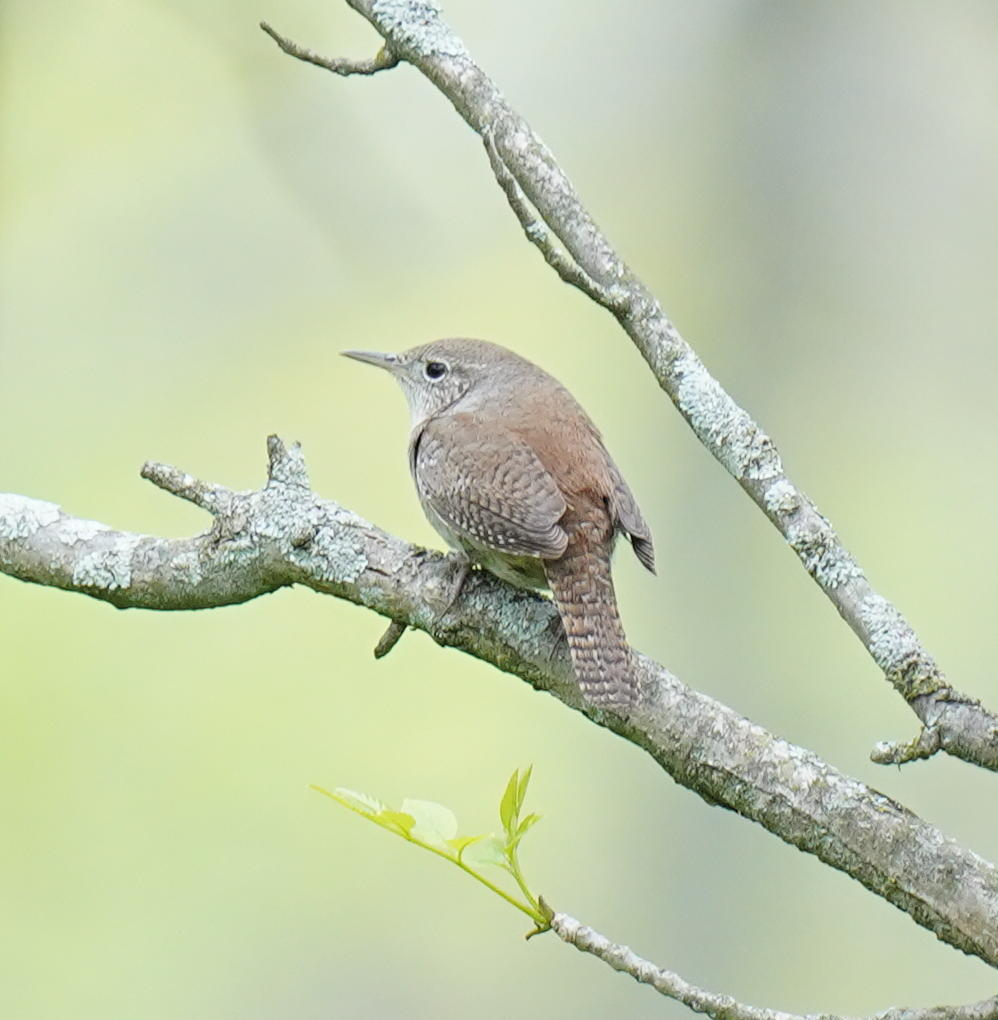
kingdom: Animalia
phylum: Chordata
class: Aves
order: Passeriformes
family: Troglodytidae
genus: Troglodytes
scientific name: Troglodytes aedon
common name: House wren
